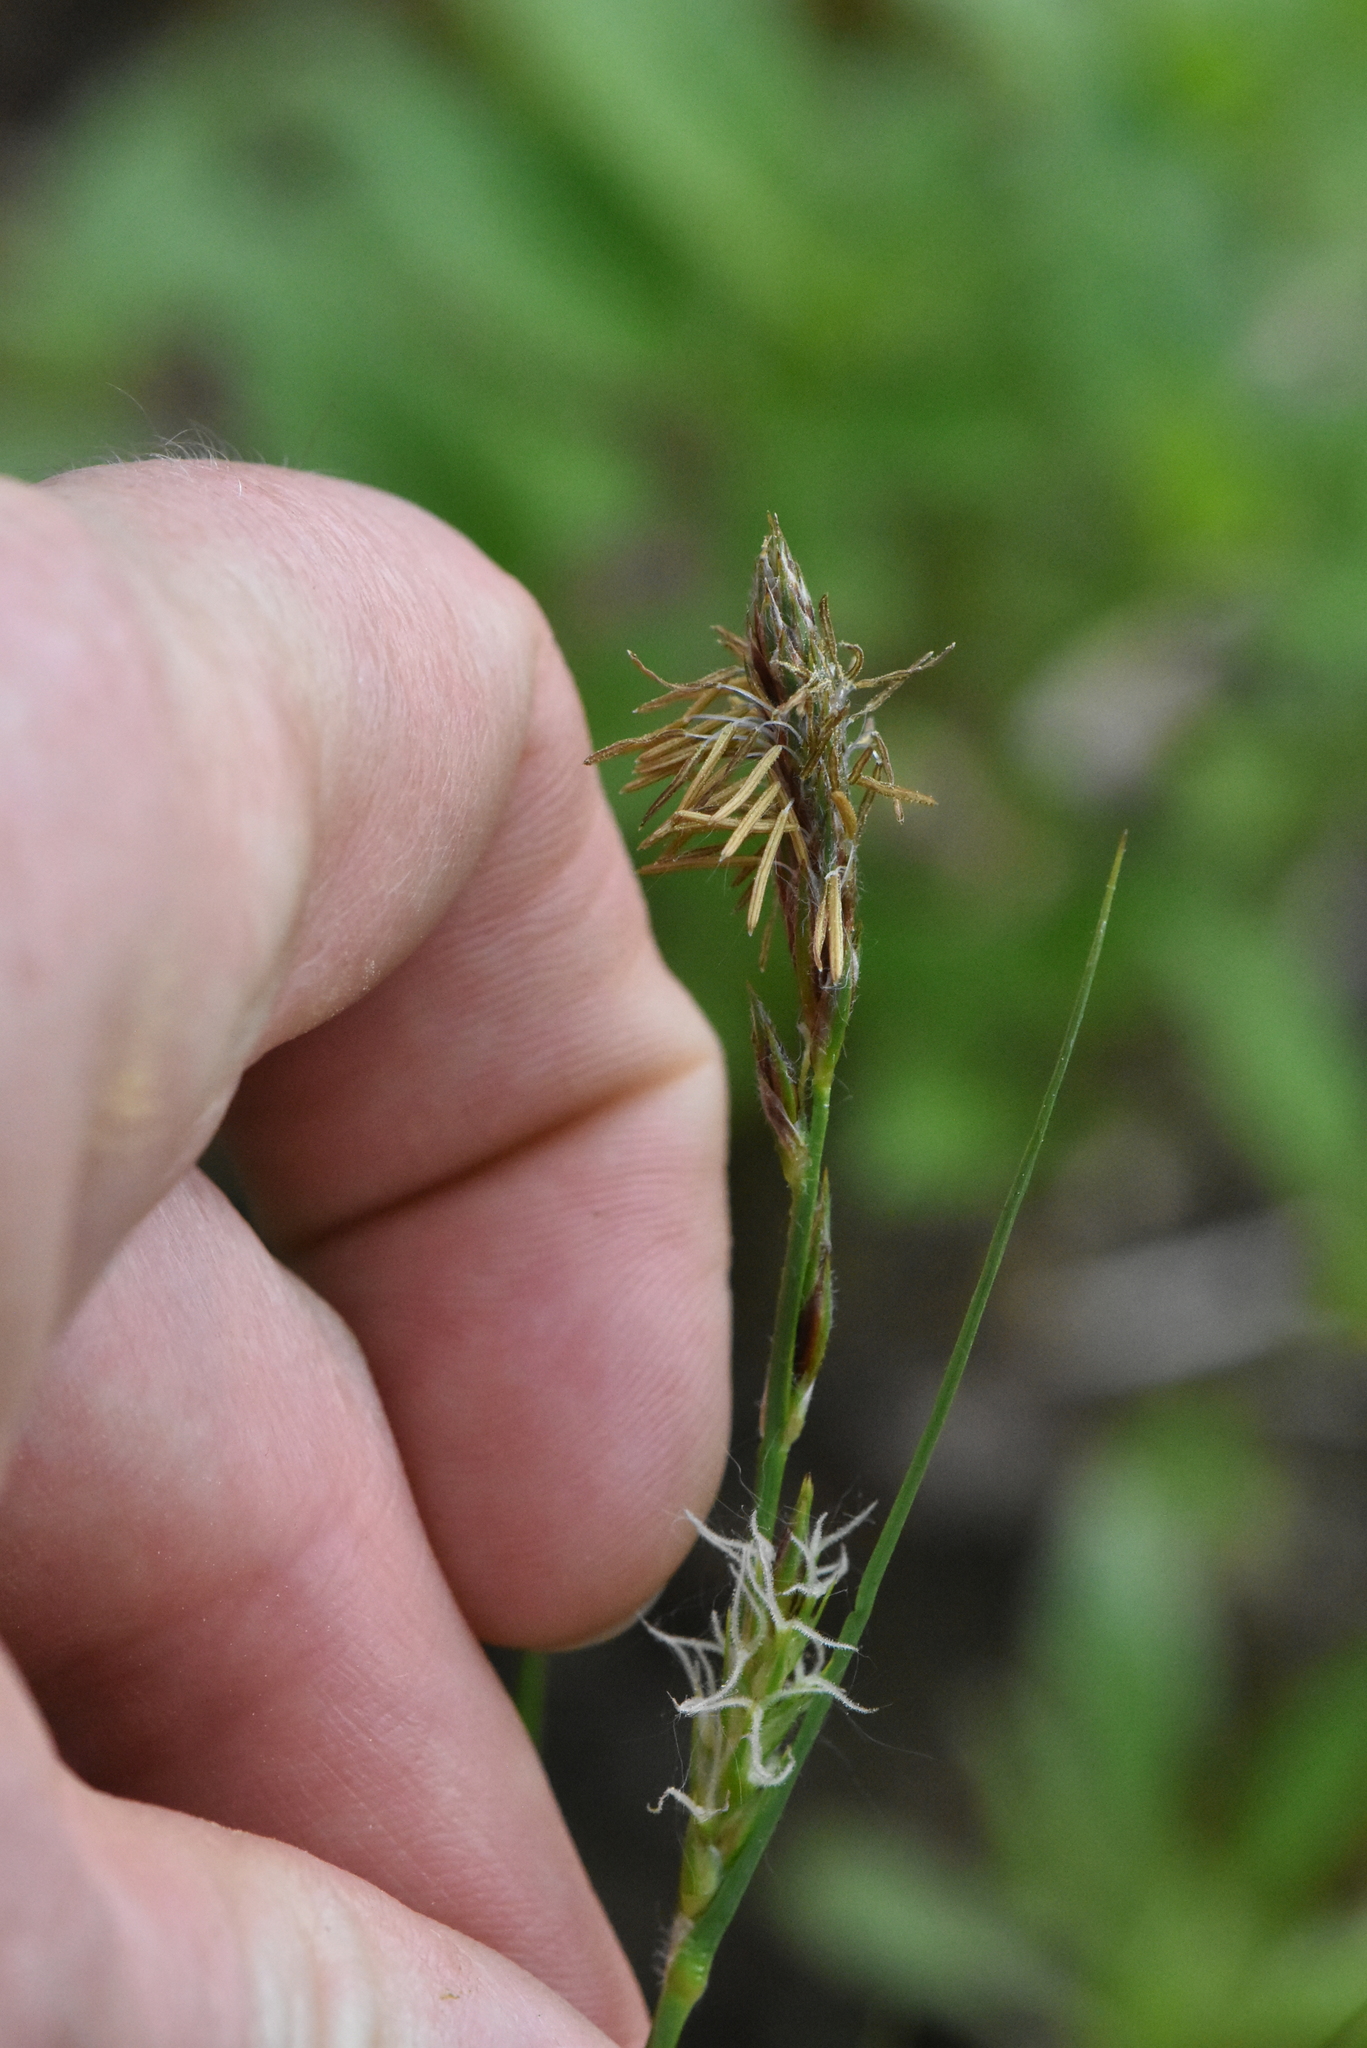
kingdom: Plantae
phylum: Tracheophyta
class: Liliopsida
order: Poales
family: Cyperaceae
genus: Carex
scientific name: Carex hirta
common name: Hairy sedge
